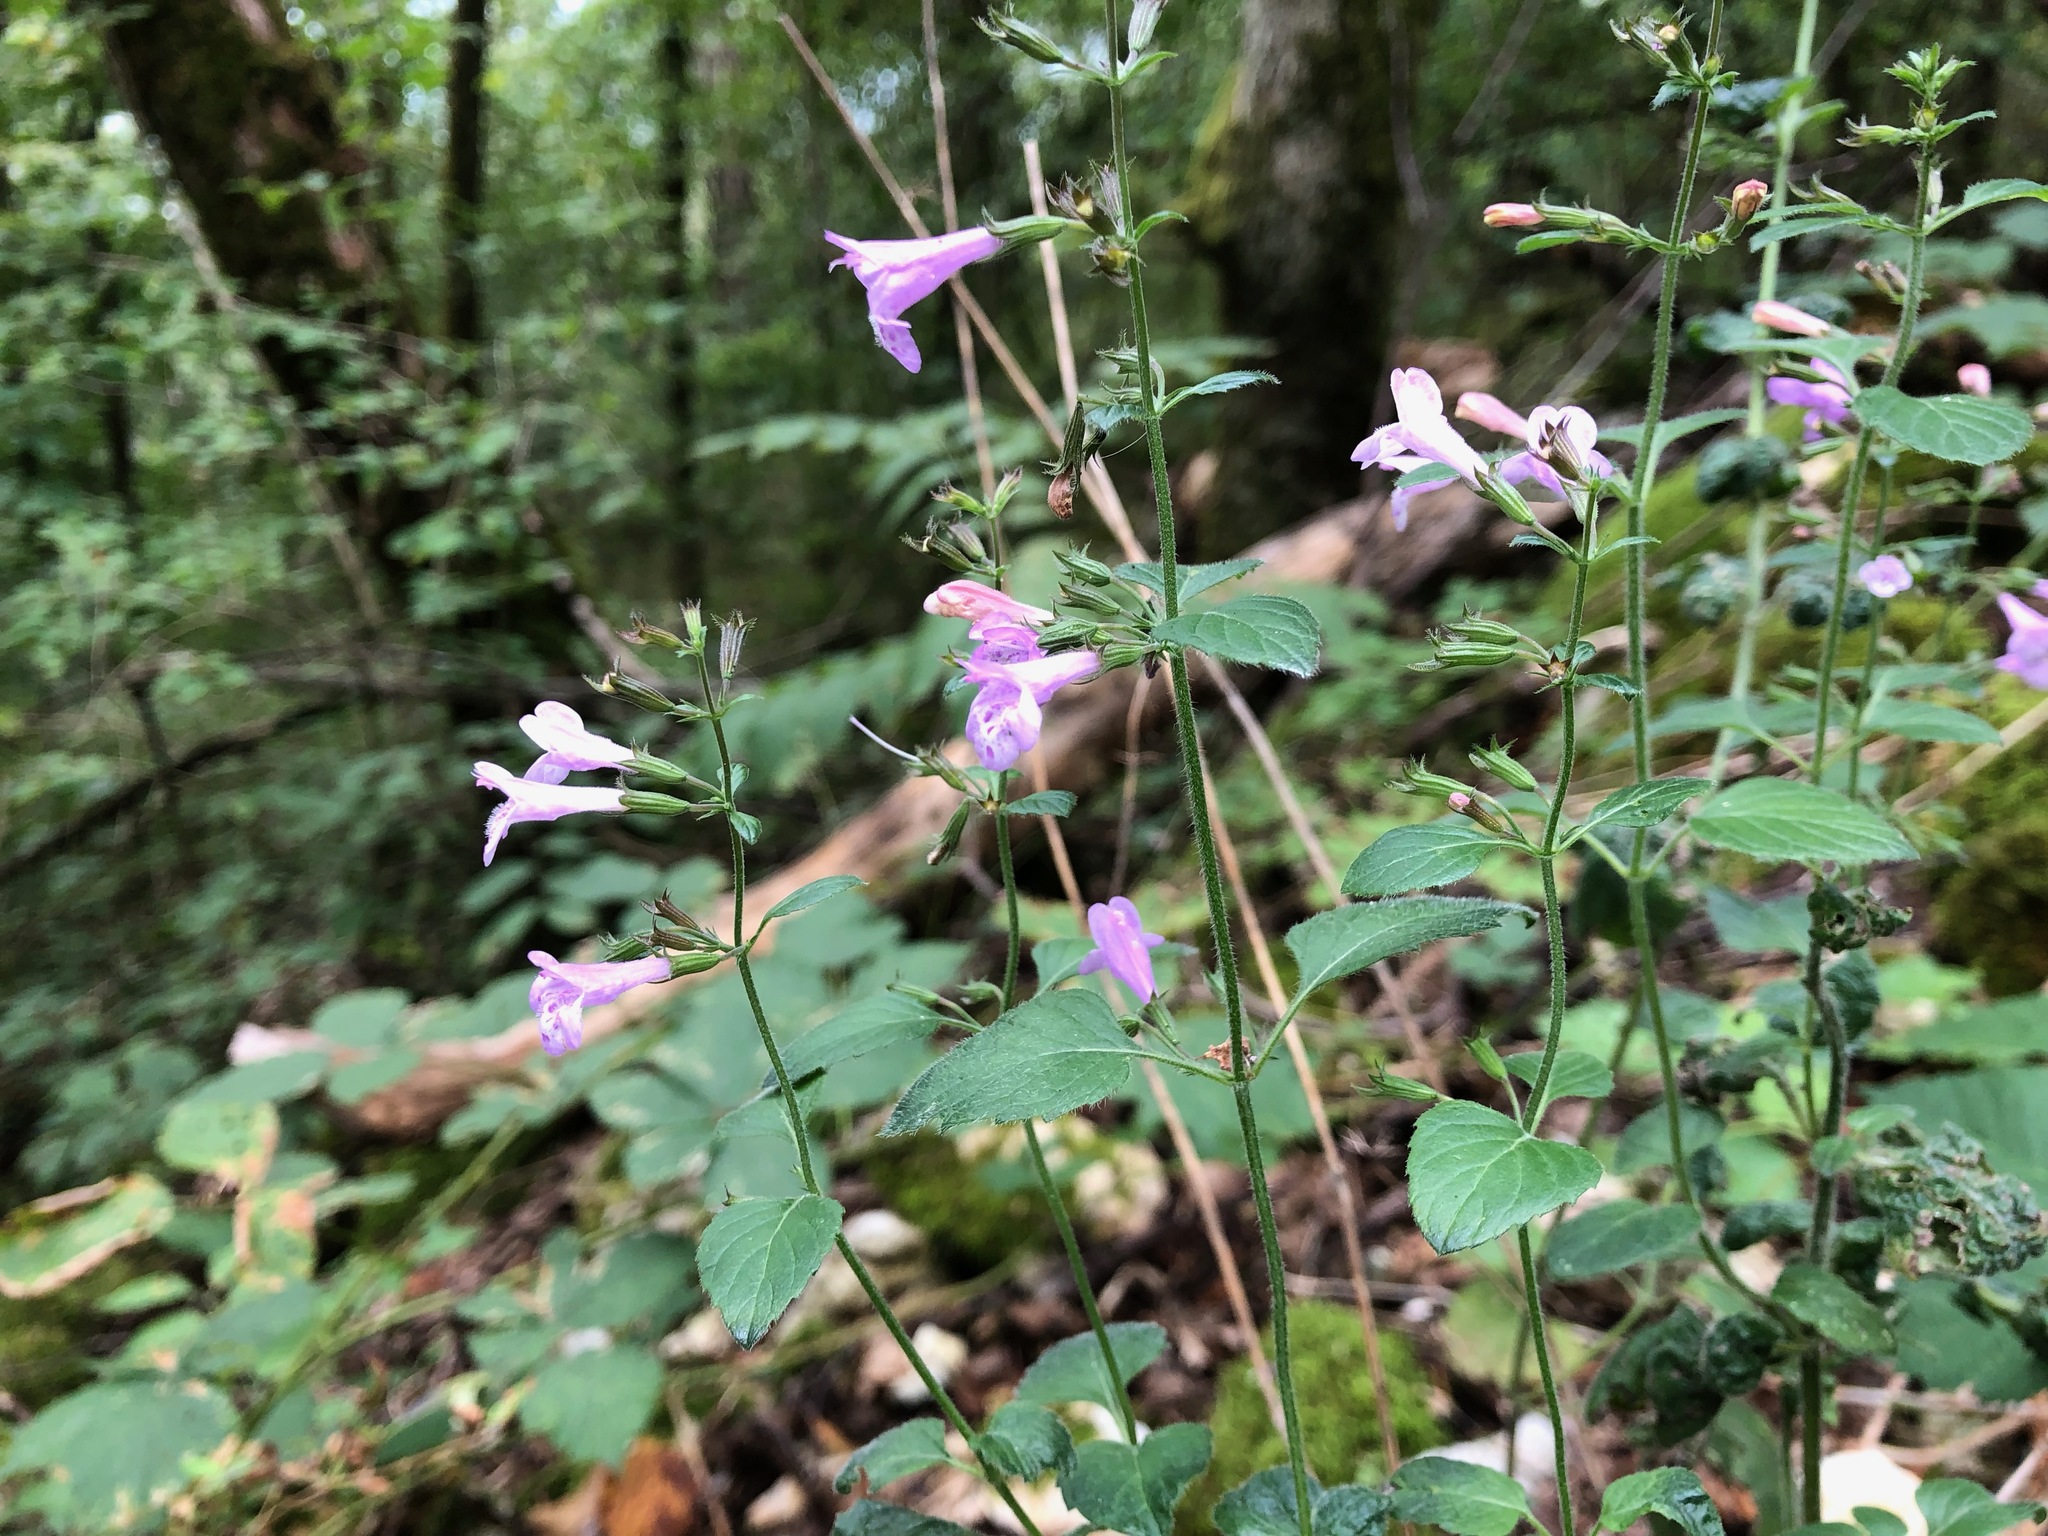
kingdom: Plantae
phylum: Tracheophyta
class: Magnoliopsida
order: Lamiales
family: Lamiaceae
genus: Clinopodium
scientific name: Clinopodium menthifolium
